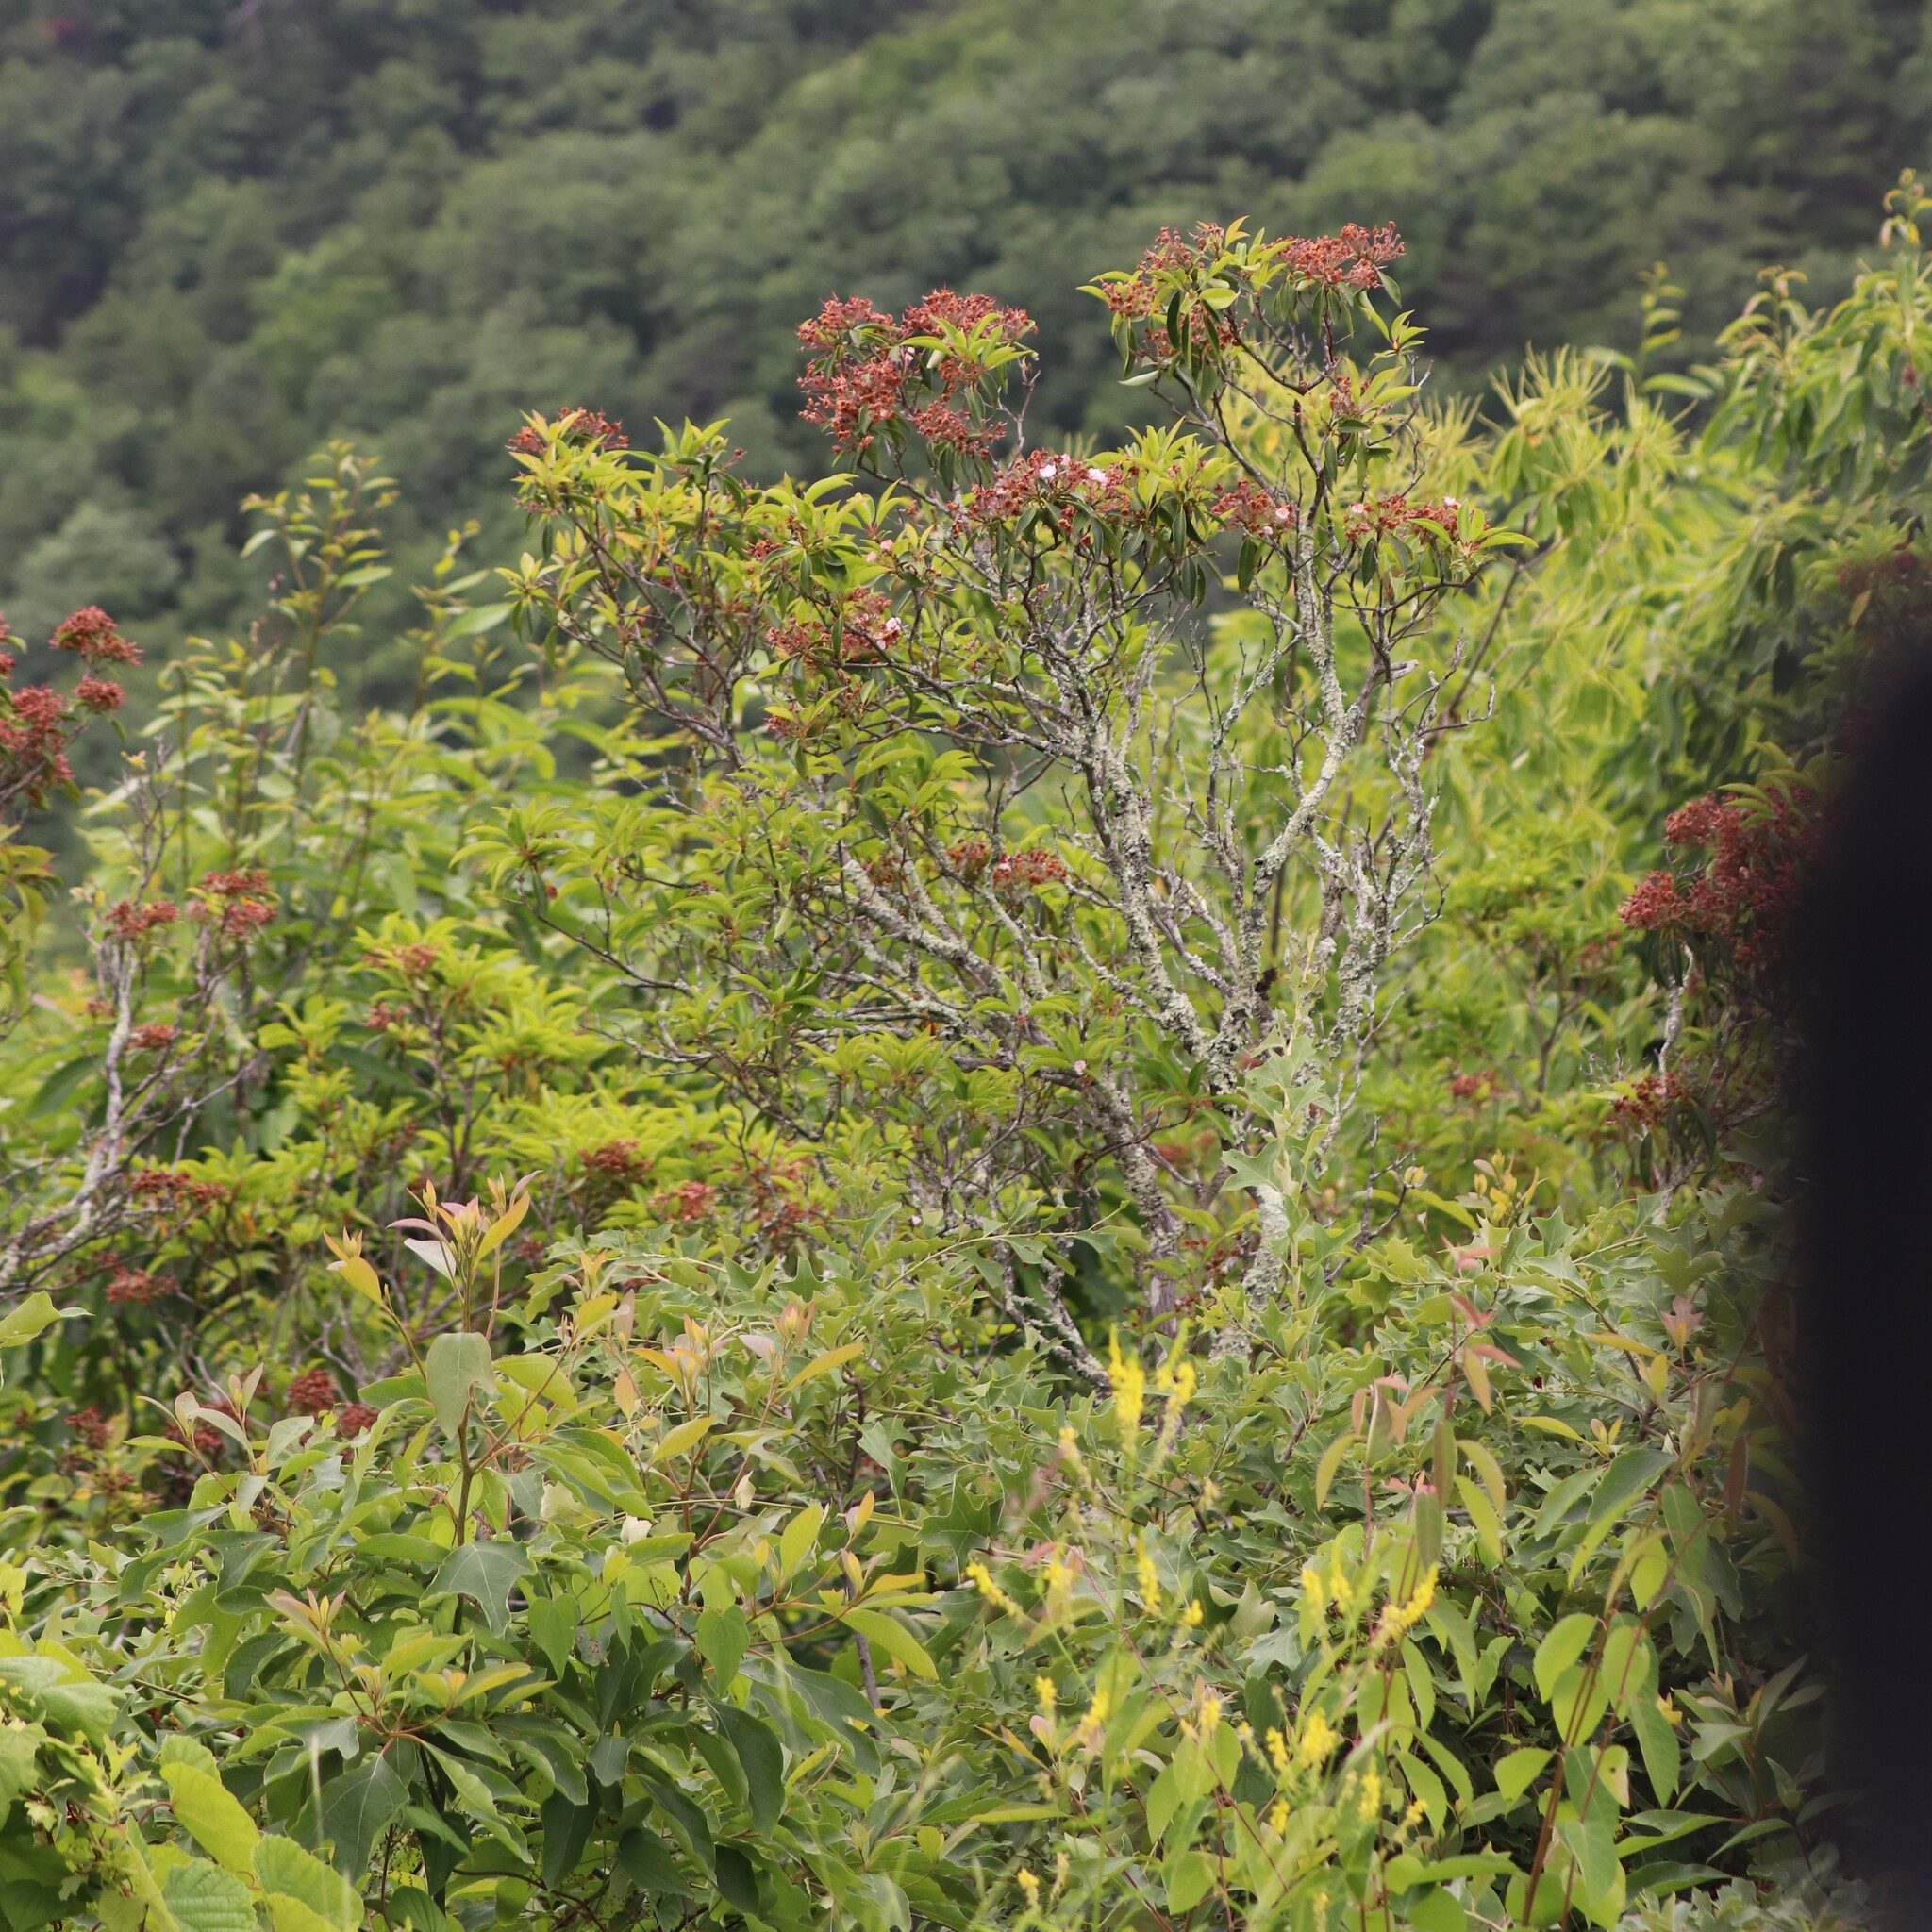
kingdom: Plantae
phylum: Tracheophyta
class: Magnoliopsida
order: Ericales
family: Ericaceae
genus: Kalmia
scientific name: Kalmia latifolia
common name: Mountain-laurel
